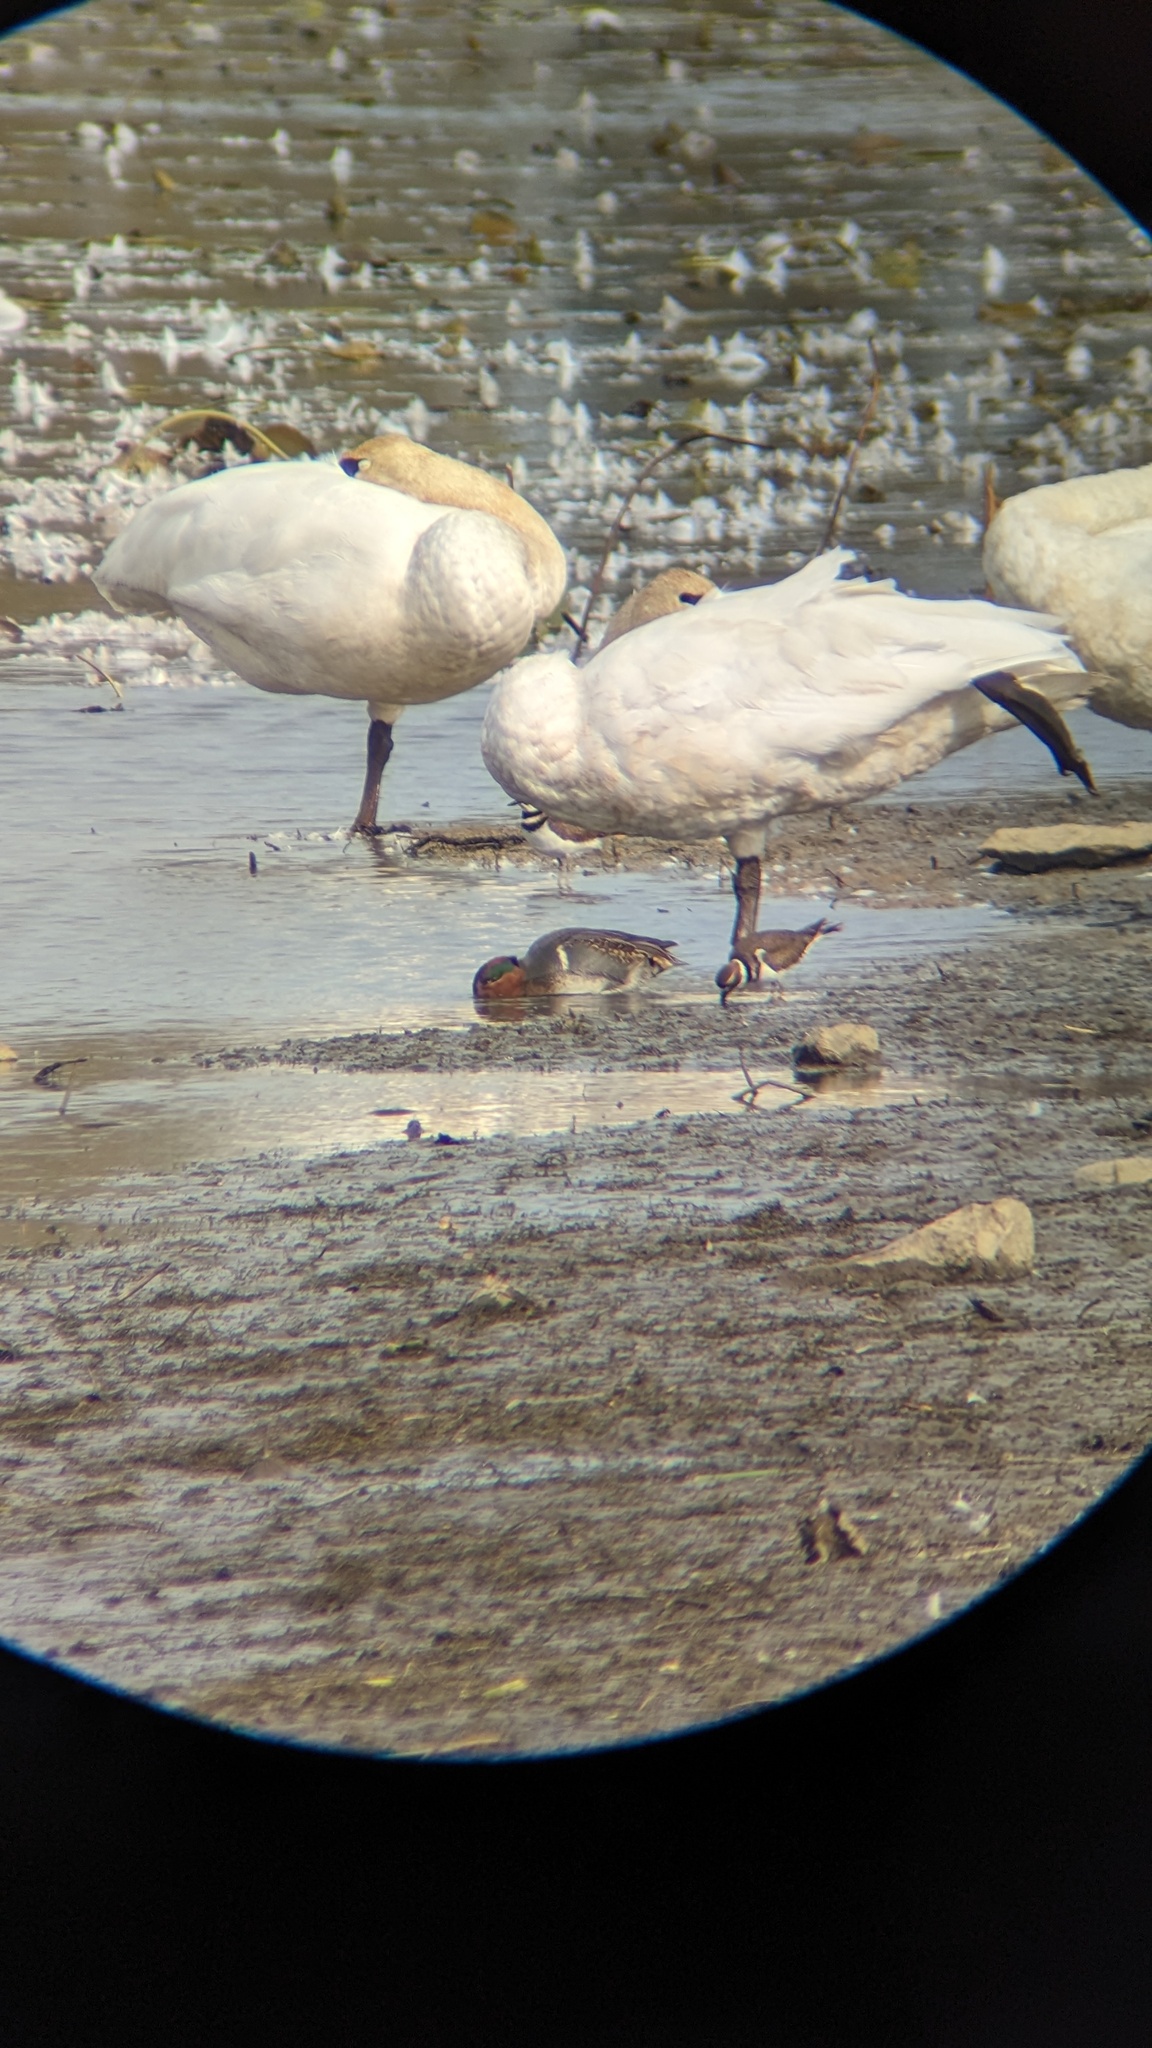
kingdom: Animalia
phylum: Chordata
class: Aves
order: Anseriformes
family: Anatidae
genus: Anas
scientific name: Anas crecca
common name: Eurasian teal
